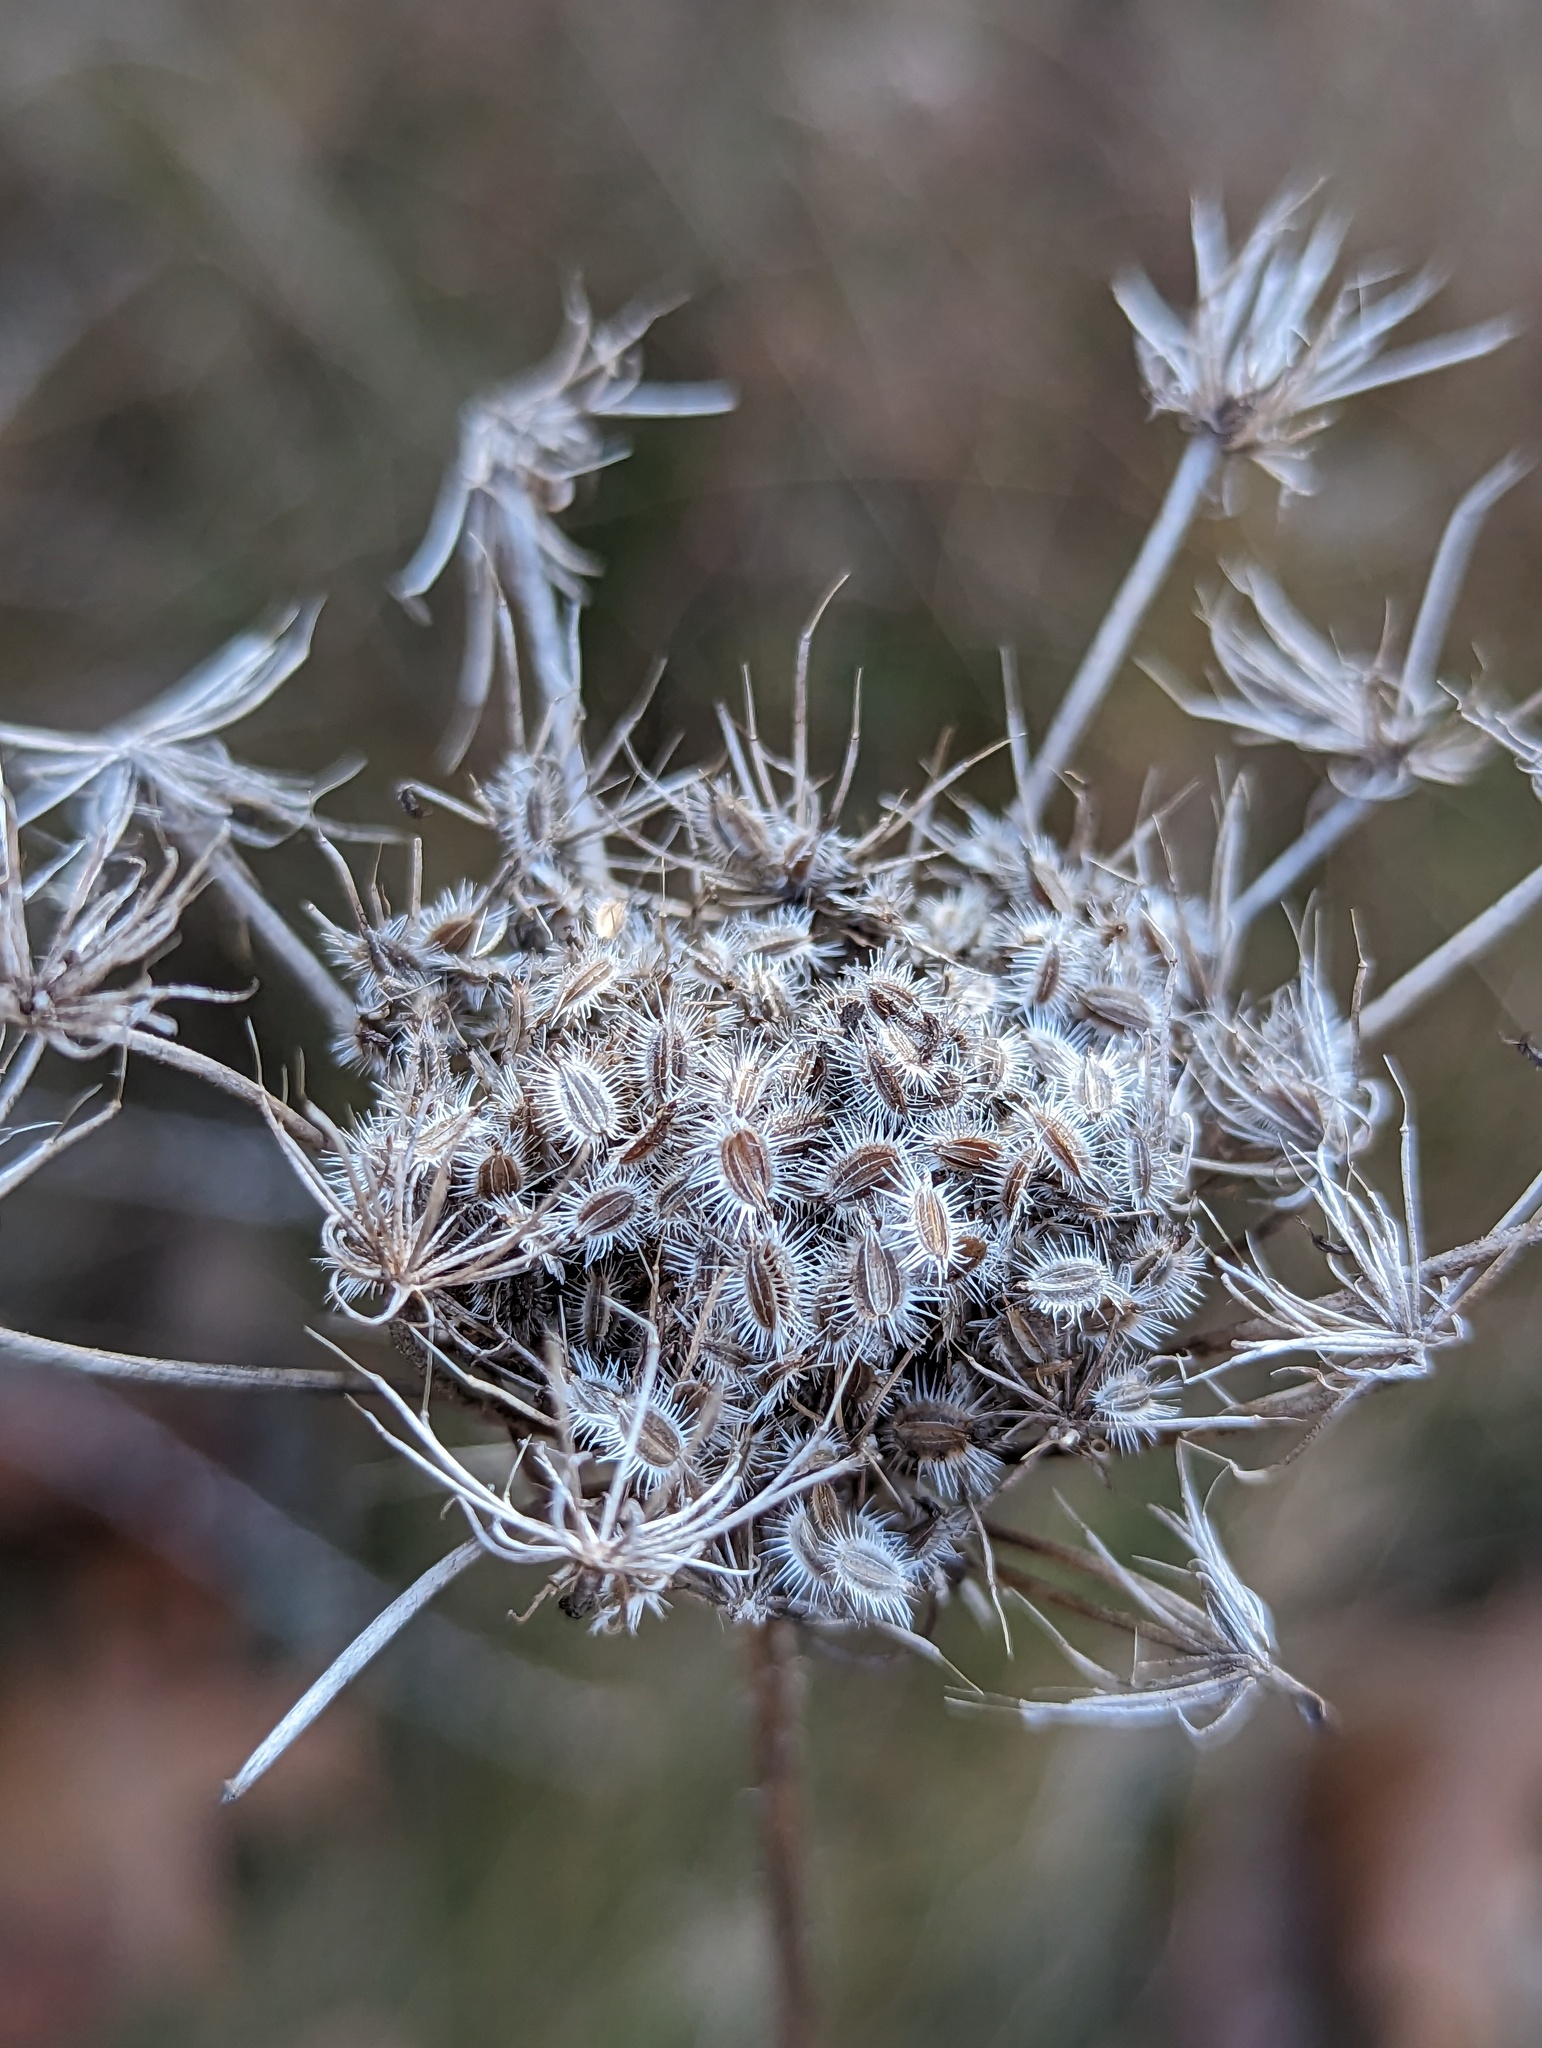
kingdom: Plantae
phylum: Tracheophyta
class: Magnoliopsida
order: Apiales
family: Apiaceae
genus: Daucus
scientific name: Daucus carota
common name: Wild carrot
